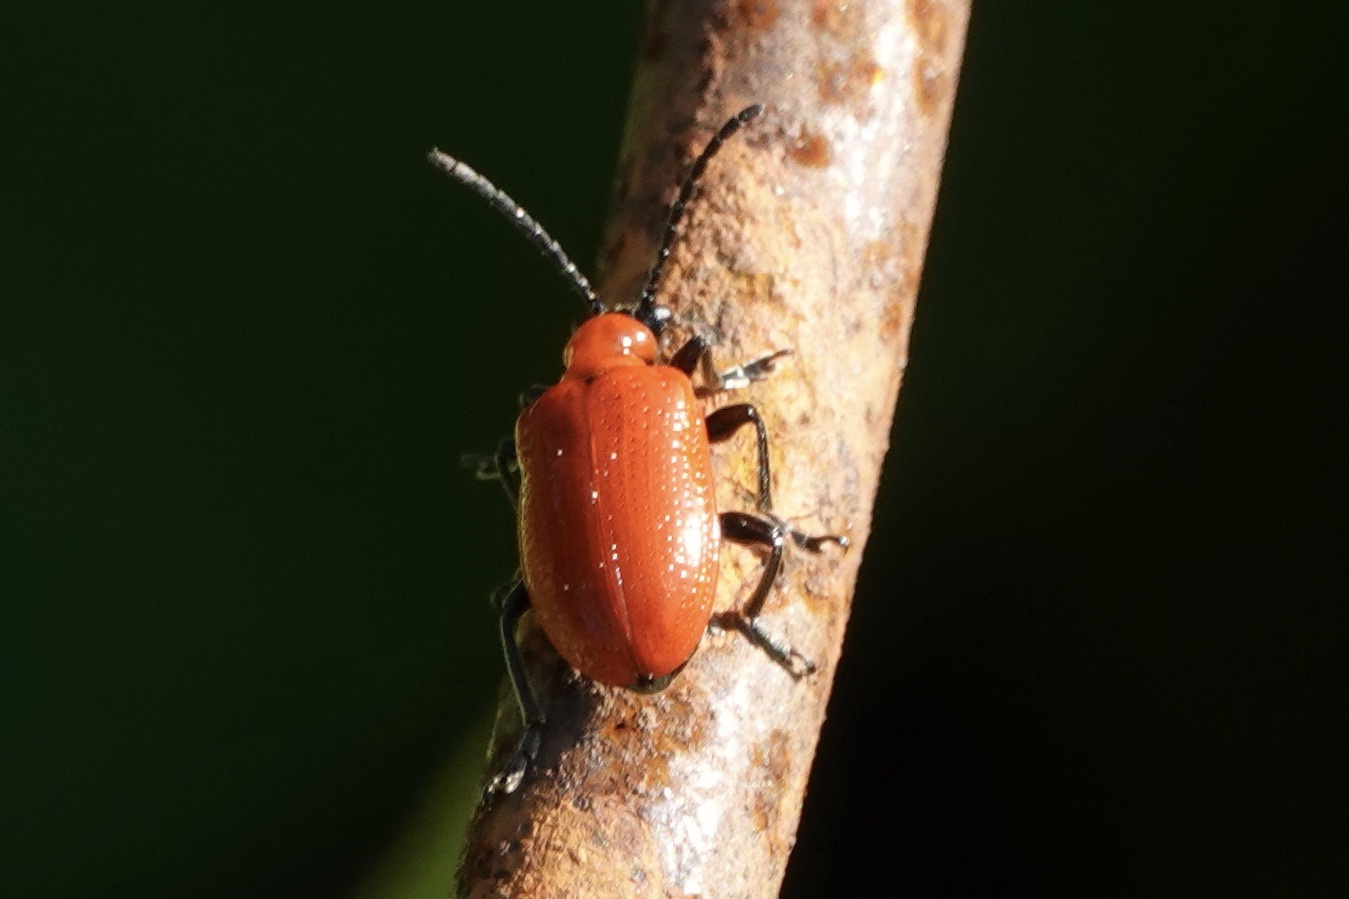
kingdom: Animalia
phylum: Arthropoda
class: Insecta
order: Coleoptera
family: Chrysomelidae
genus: Lilioceris
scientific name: Lilioceris lilii
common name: Lily beetle
